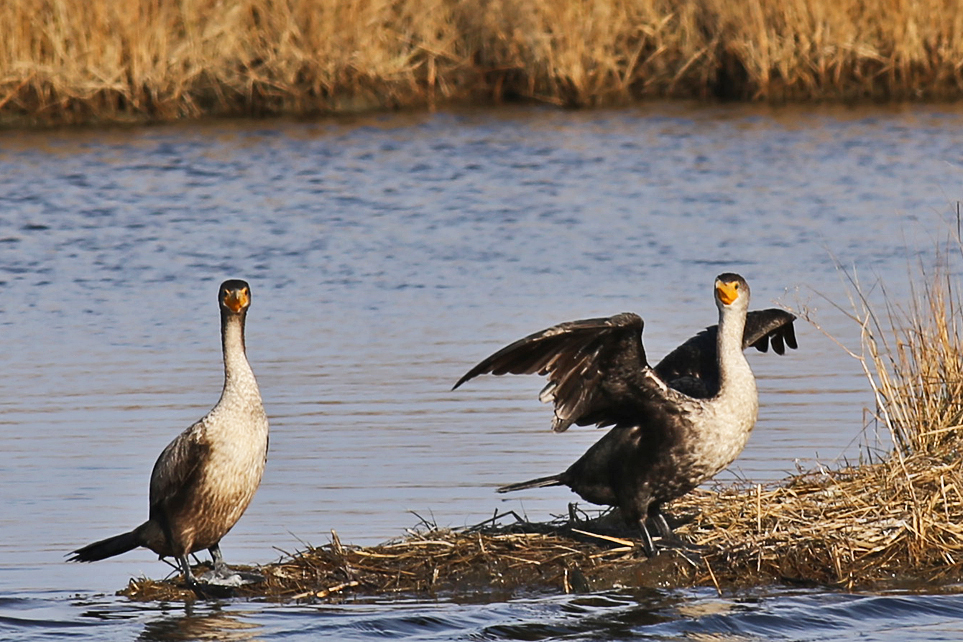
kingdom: Animalia
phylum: Chordata
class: Aves
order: Suliformes
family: Phalacrocoracidae
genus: Phalacrocorax
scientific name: Phalacrocorax auritus
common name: Double-crested cormorant
